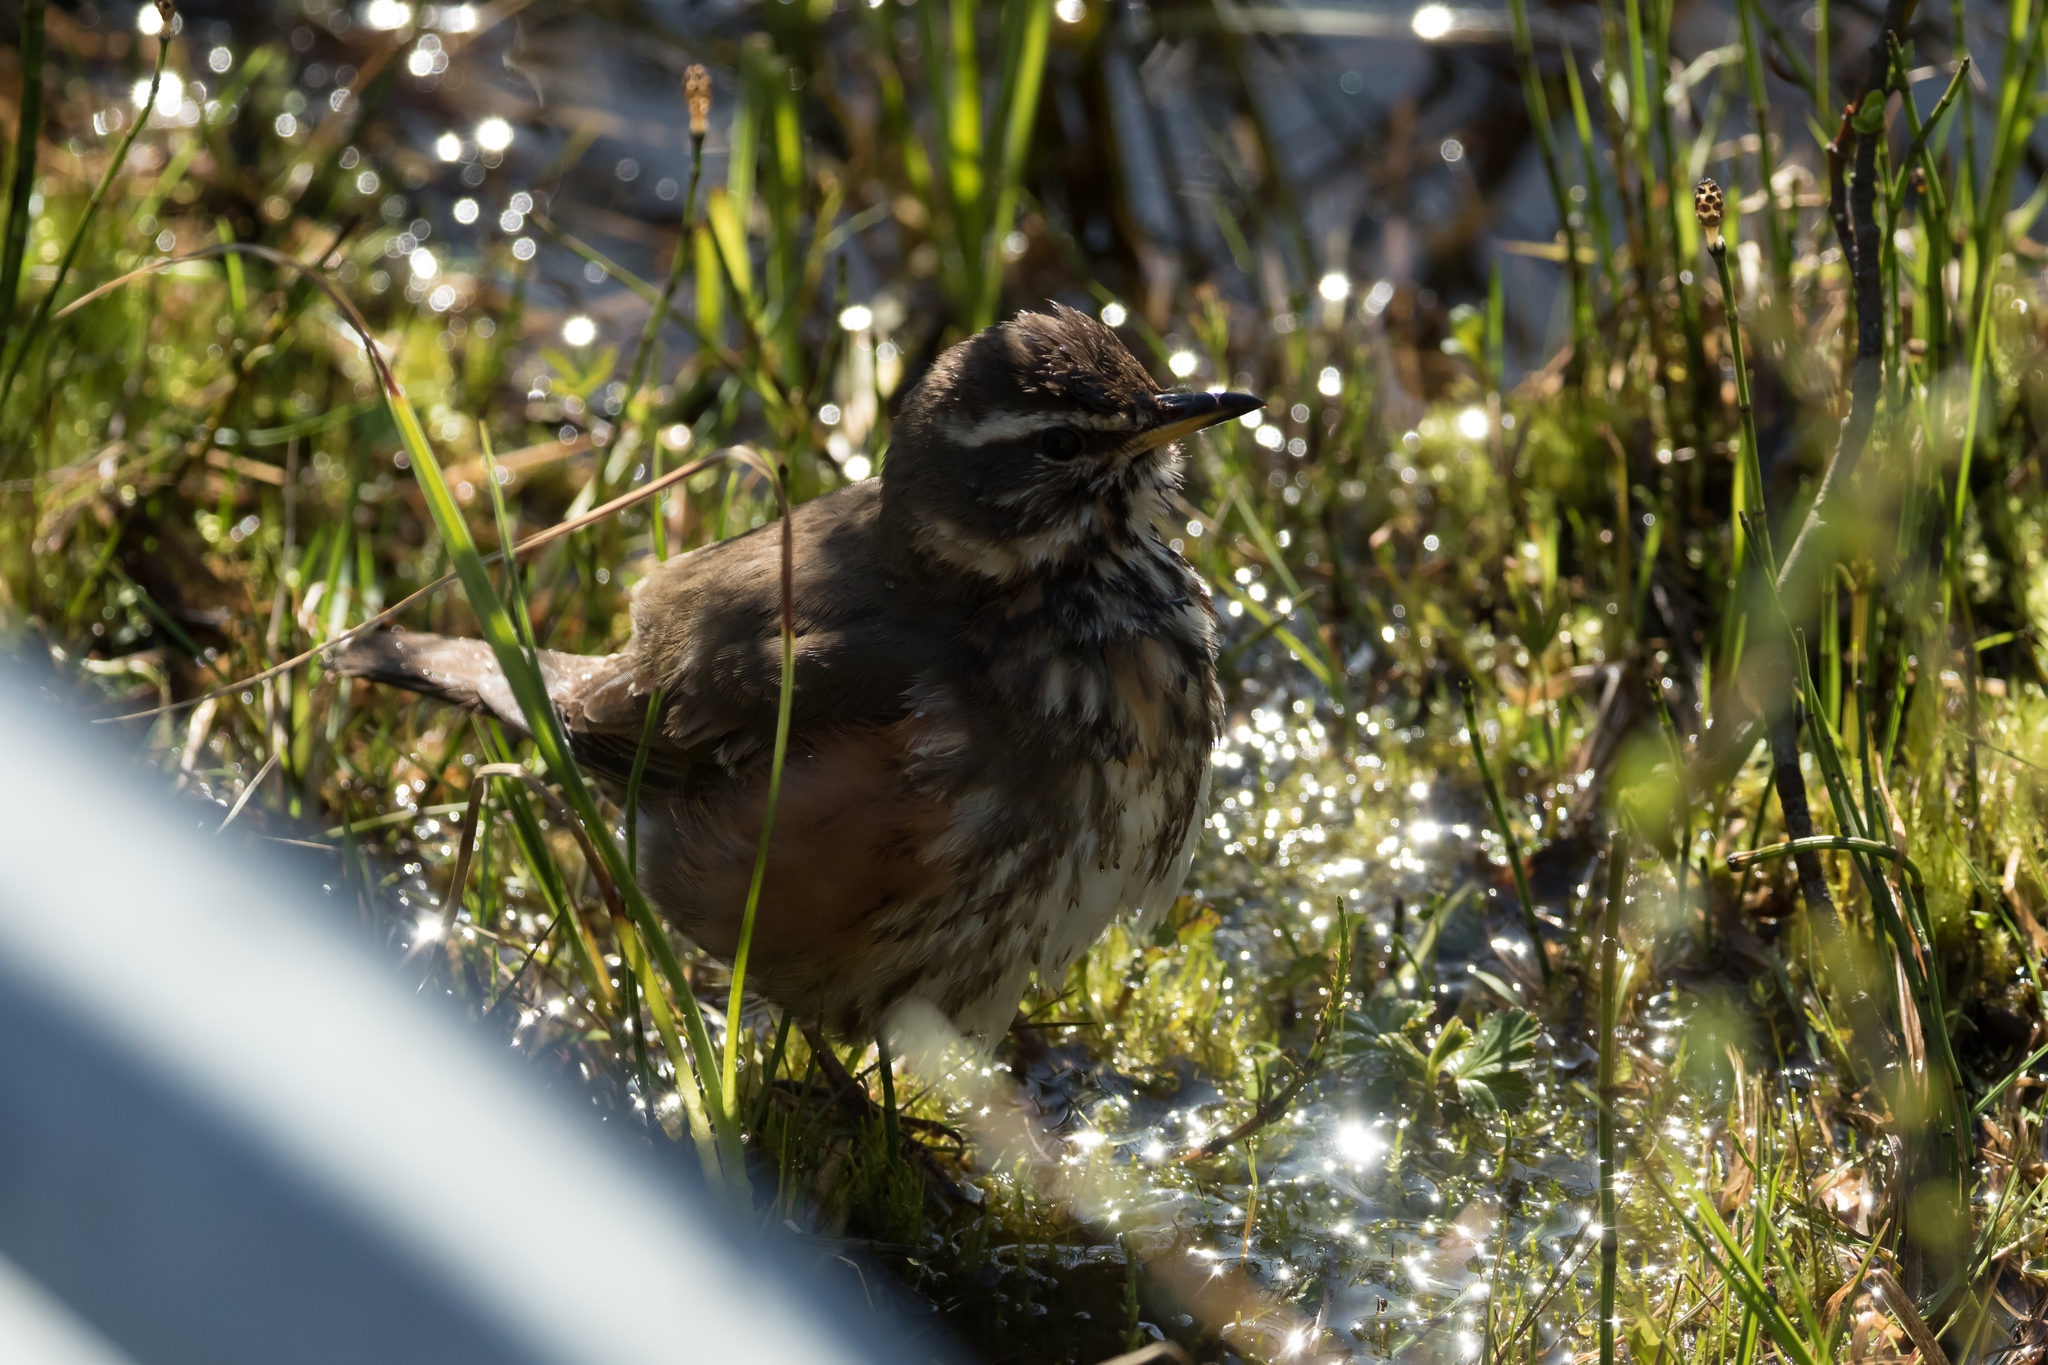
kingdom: Animalia
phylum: Chordata
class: Aves
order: Passeriformes
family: Turdidae
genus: Turdus
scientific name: Turdus iliacus
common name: Redwing
